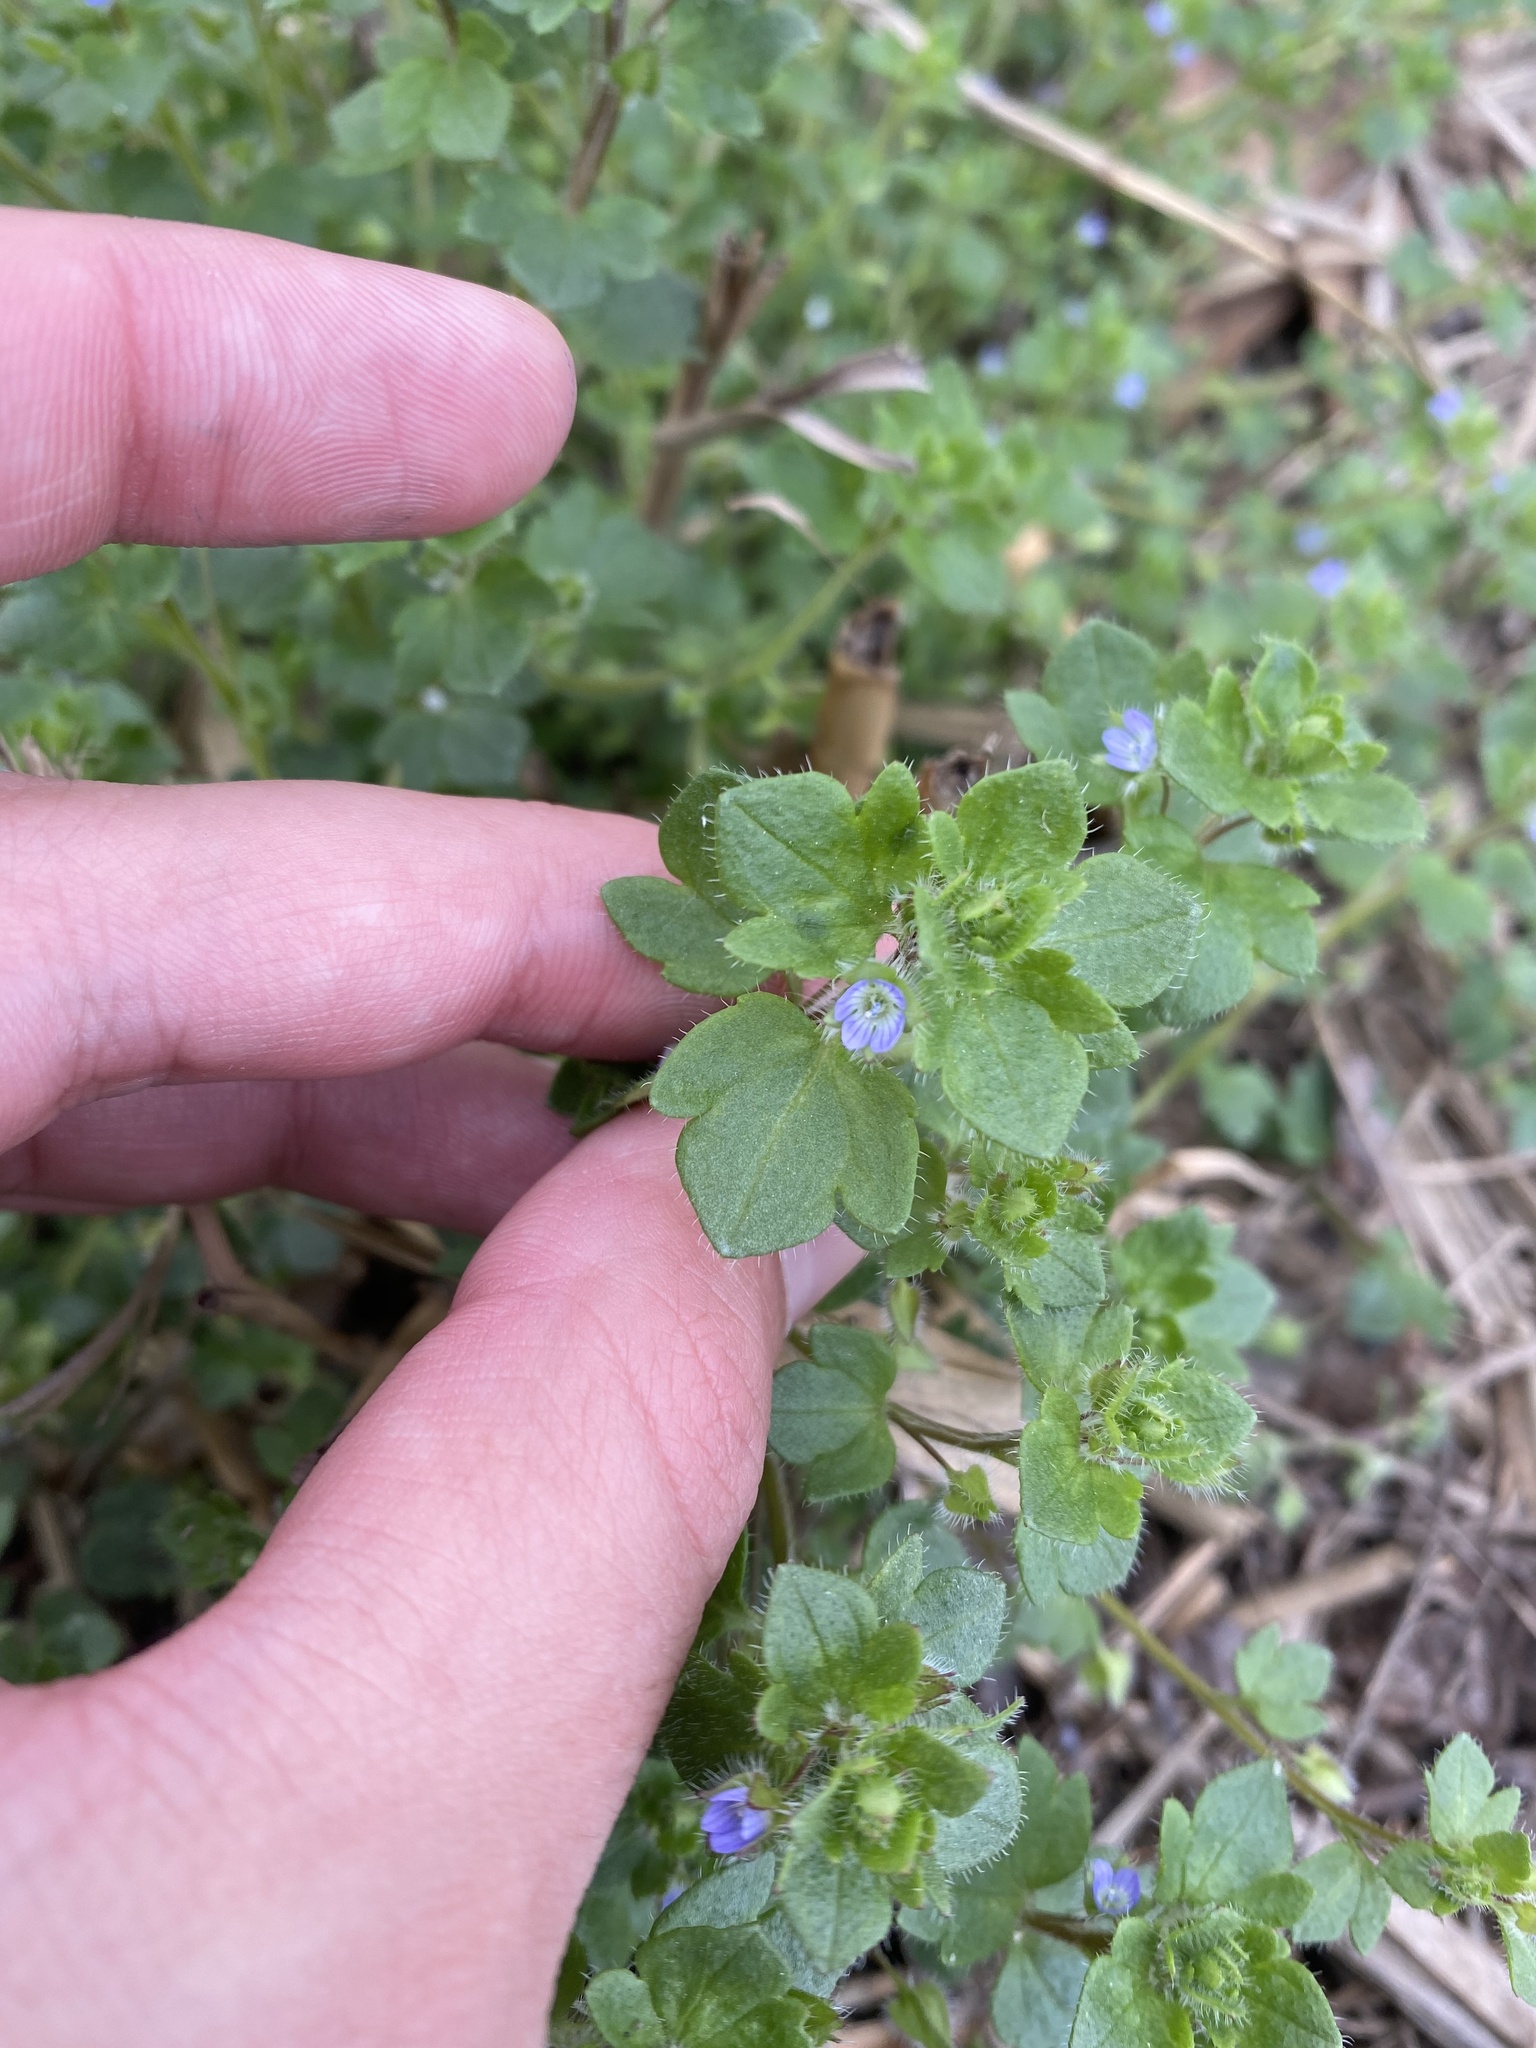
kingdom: Plantae
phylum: Tracheophyta
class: Magnoliopsida
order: Lamiales
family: Plantaginaceae
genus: Veronica
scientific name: Veronica hederifolia
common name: Ivy-leaved speedwell
